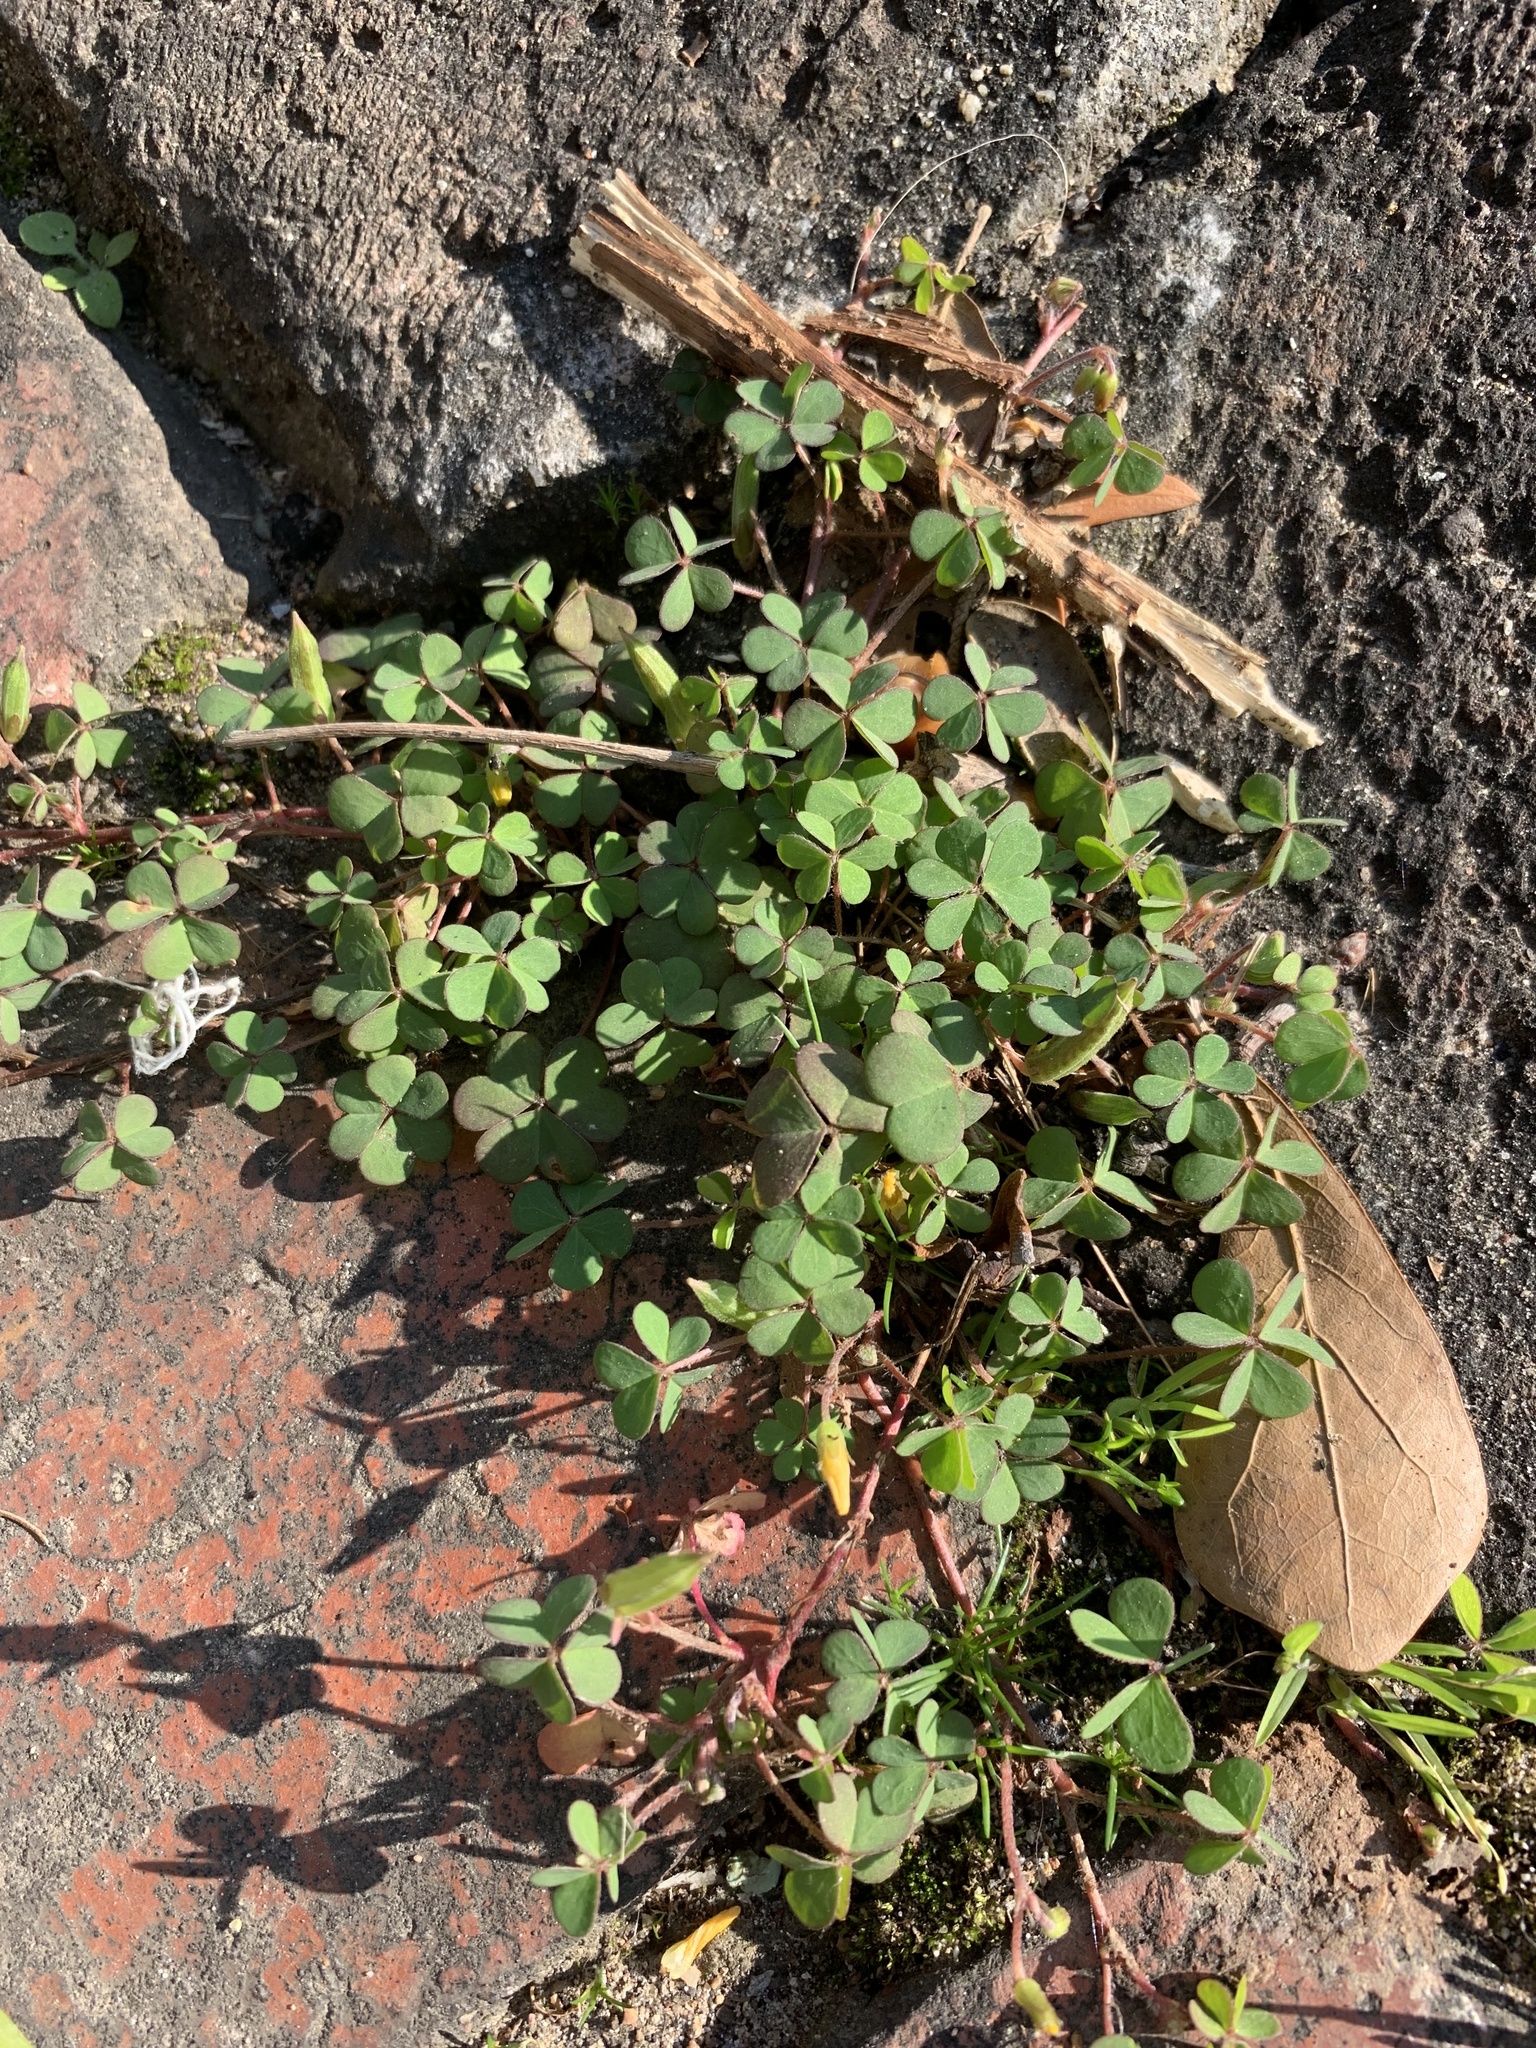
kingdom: Plantae
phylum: Tracheophyta
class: Magnoliopsida
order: Oxalidales
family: Oxalidaceae
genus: Oxalis
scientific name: Oxalis corniculata
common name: Procumbent yellow-sorrel
